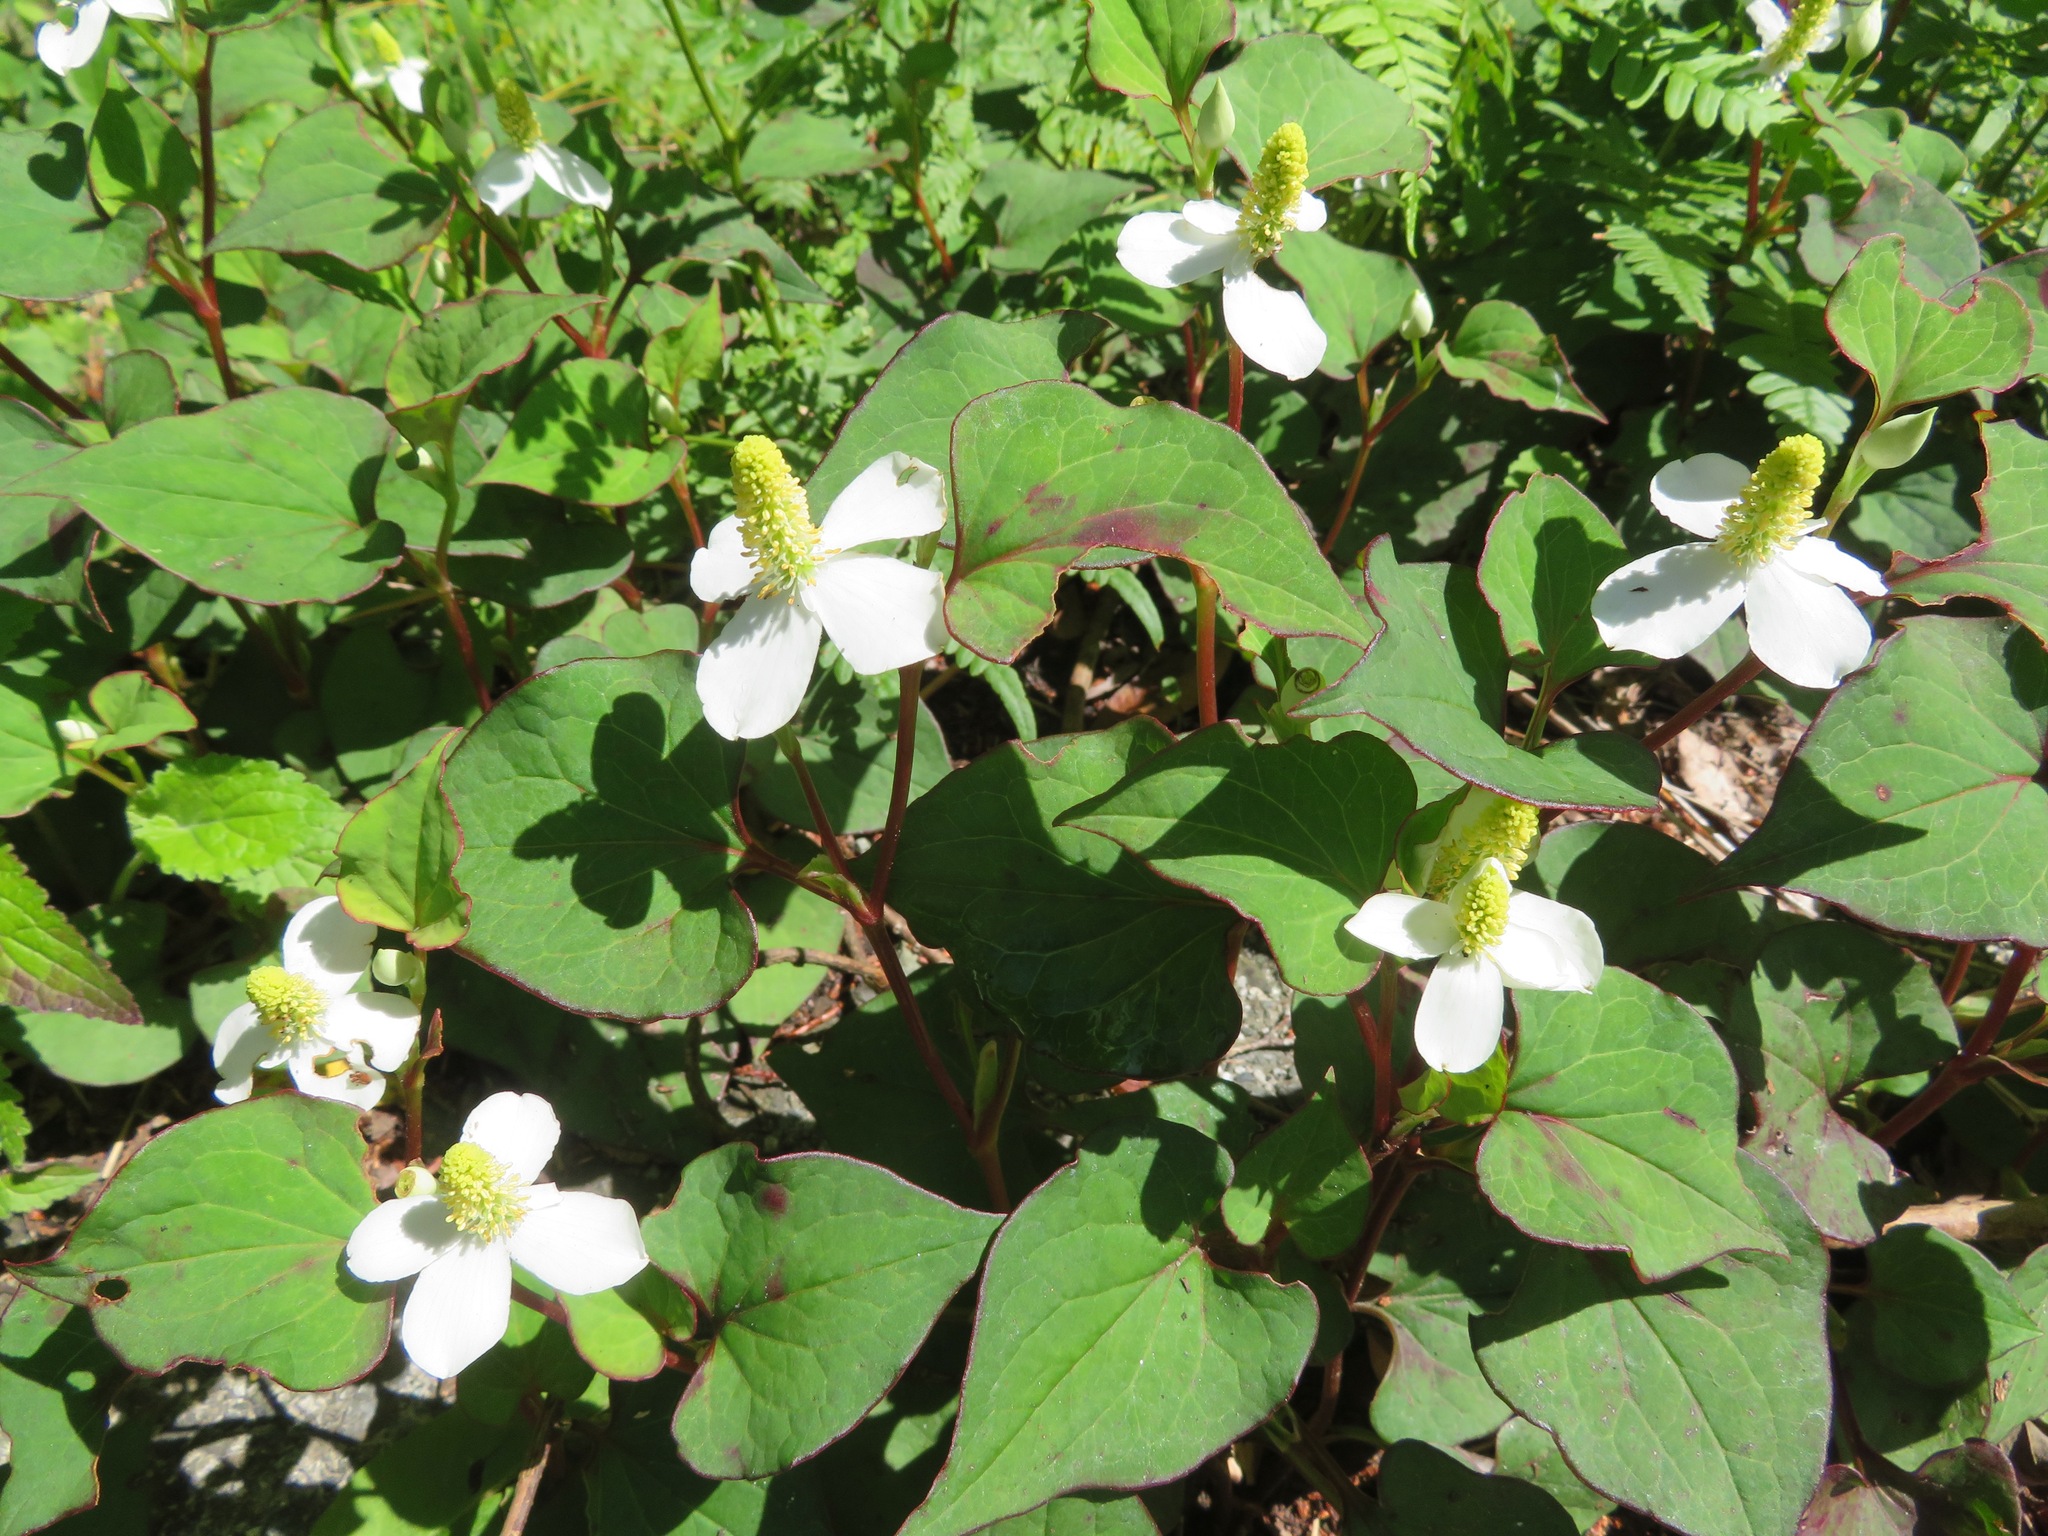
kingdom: Plantae
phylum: Tracheophyta
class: Magnoliopsida
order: Piperales
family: Saururaceae
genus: Houttuynia
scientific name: Houttuynia cordata
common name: Chameleon
